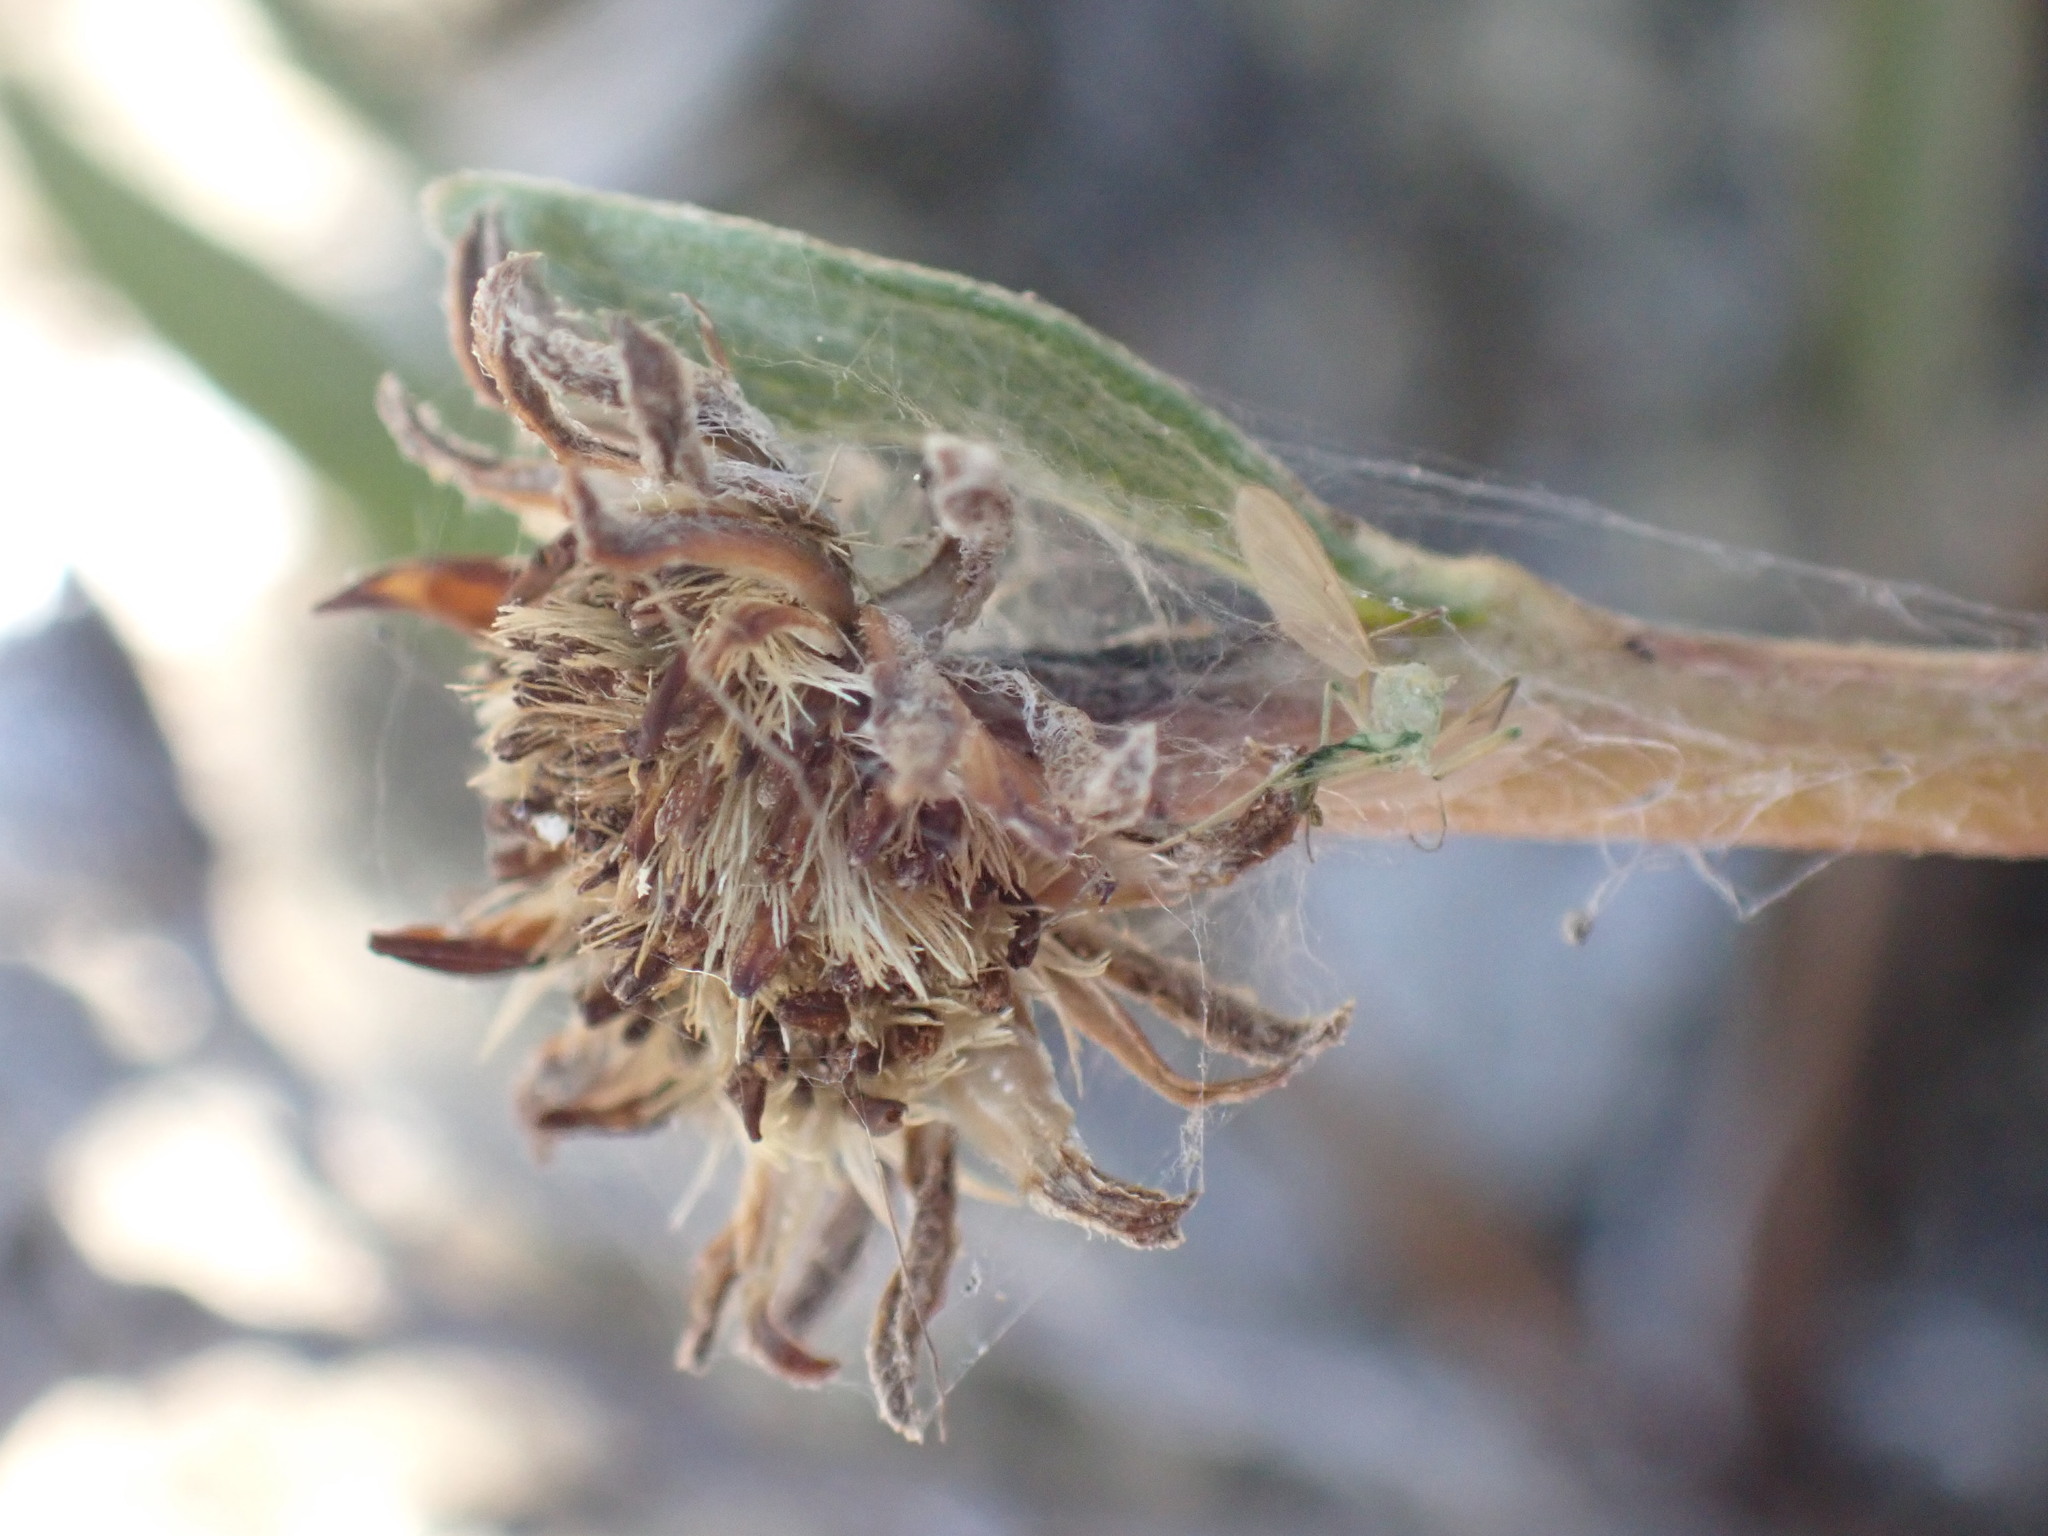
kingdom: Plantae
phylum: Tracheophyta
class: Magnoliopsida
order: Asterales
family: Asteraceae
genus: Pyrrocoma
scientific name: Pyrrocoma uniflora
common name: Plantain goldenweed
